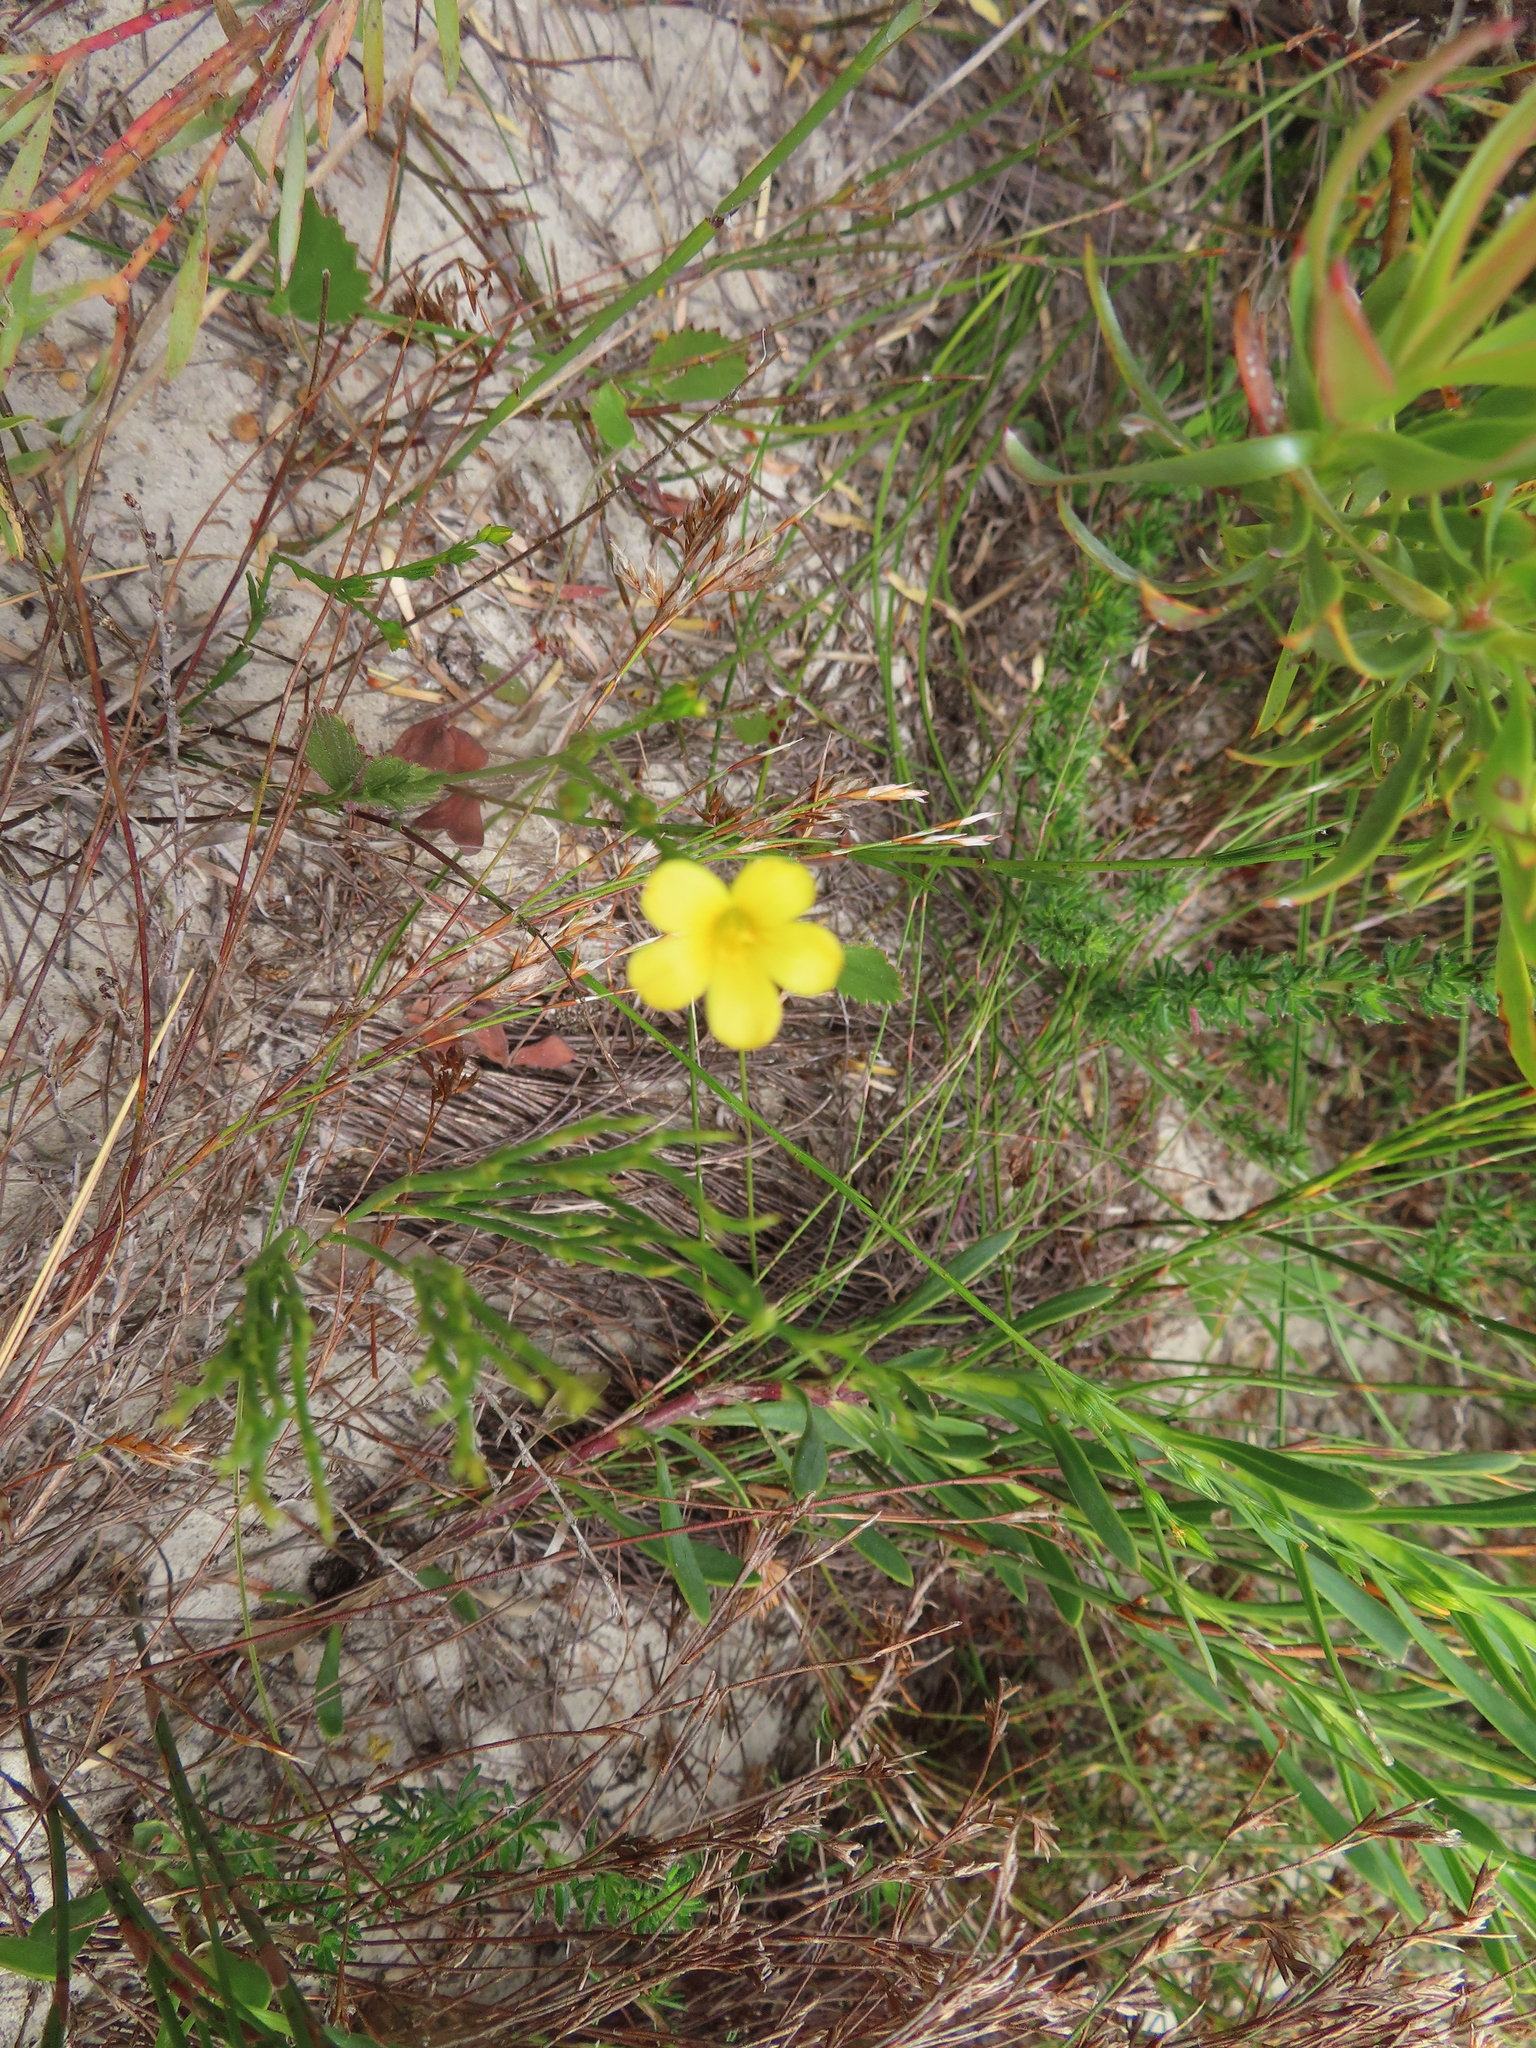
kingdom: Plantae
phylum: Tracheophyta
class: Magnoliopsida
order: Malpighiales
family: Linaceae
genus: Linum
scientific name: Linum africanum
